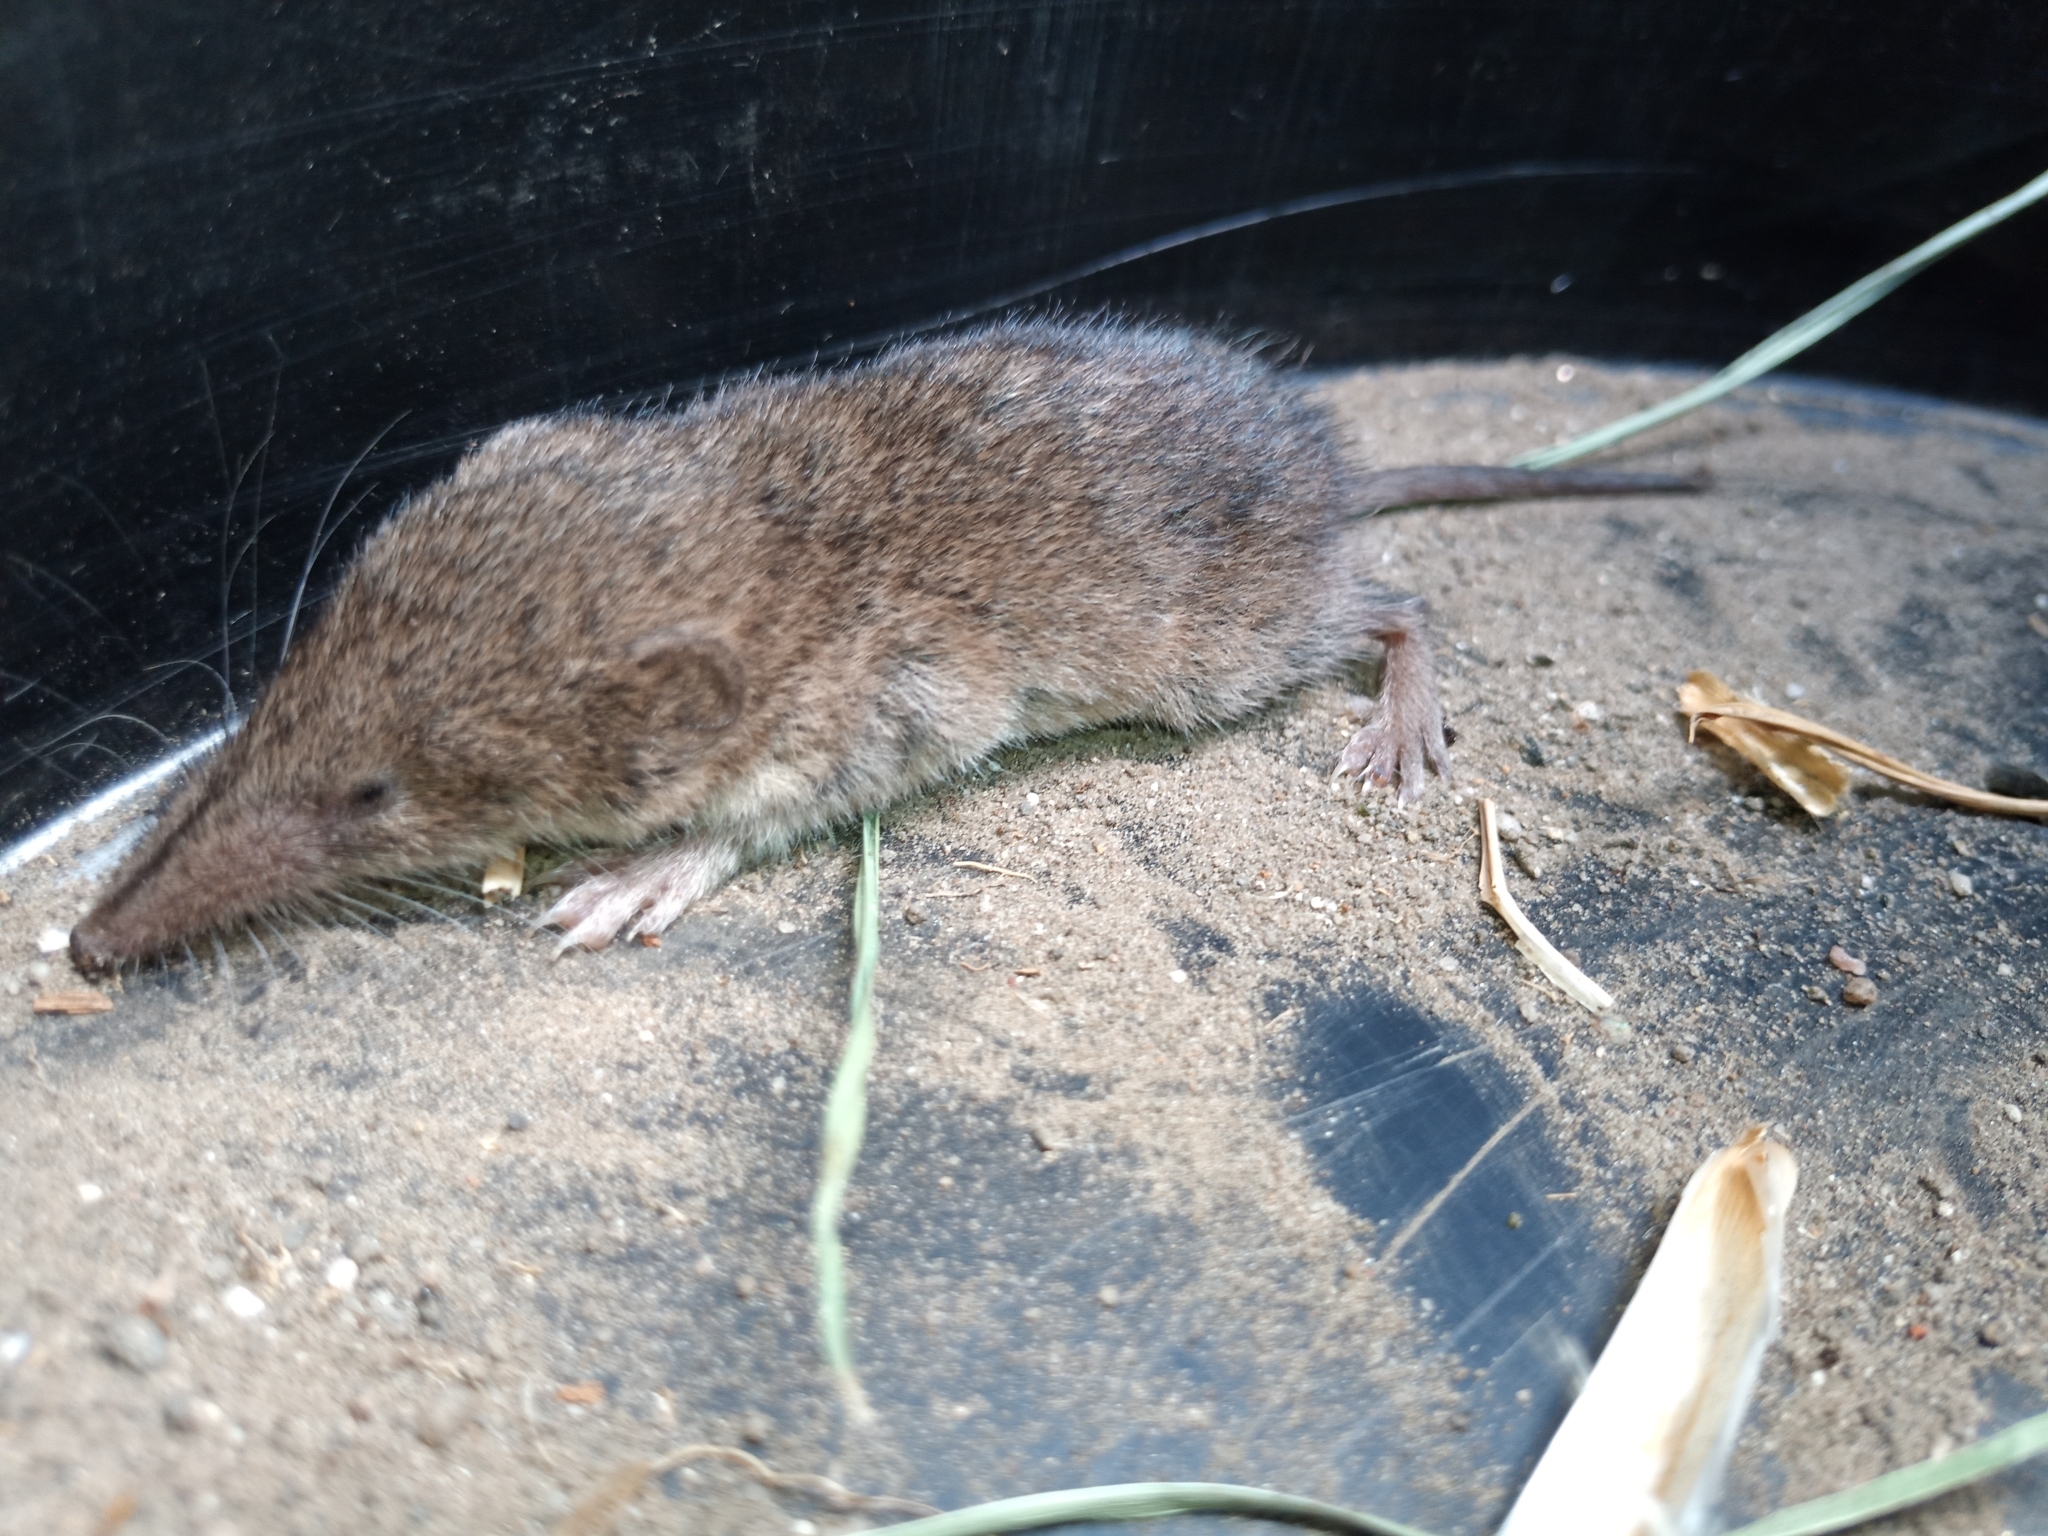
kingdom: Animalia
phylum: Chordata
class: Mammalia
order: Soricomorpha
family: Soricidae
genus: Myosorex
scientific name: Myosorex varius
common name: Forest shrew
